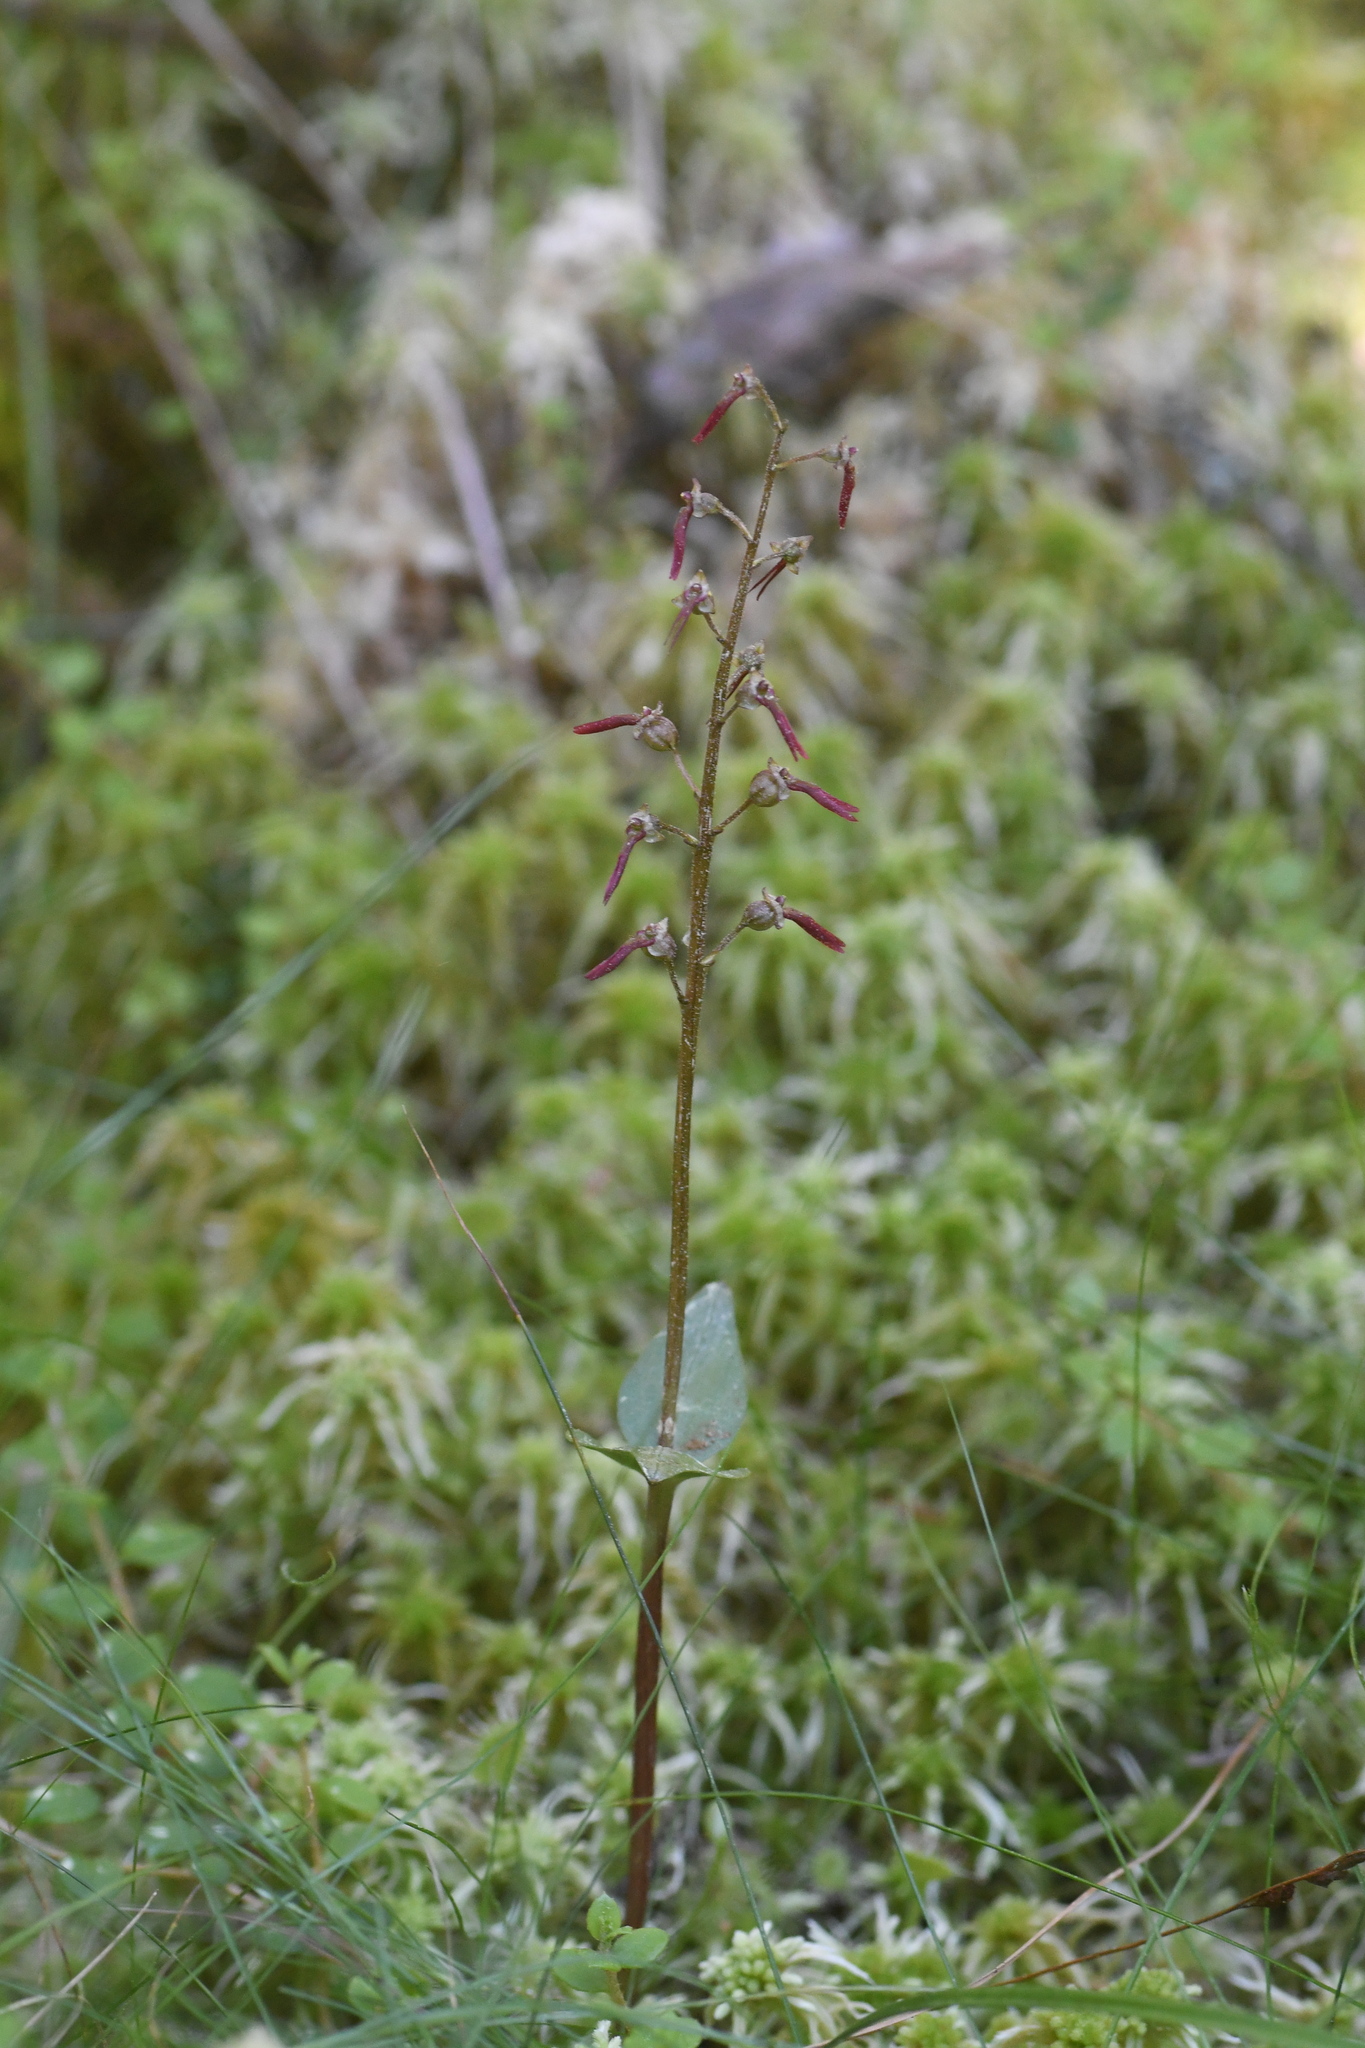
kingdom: Plantae
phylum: Tracheophyta
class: Liliopsida
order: Asparagales
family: Orchidaceae
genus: Neottia
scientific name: Neottia bifolia
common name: Southern twayblade
